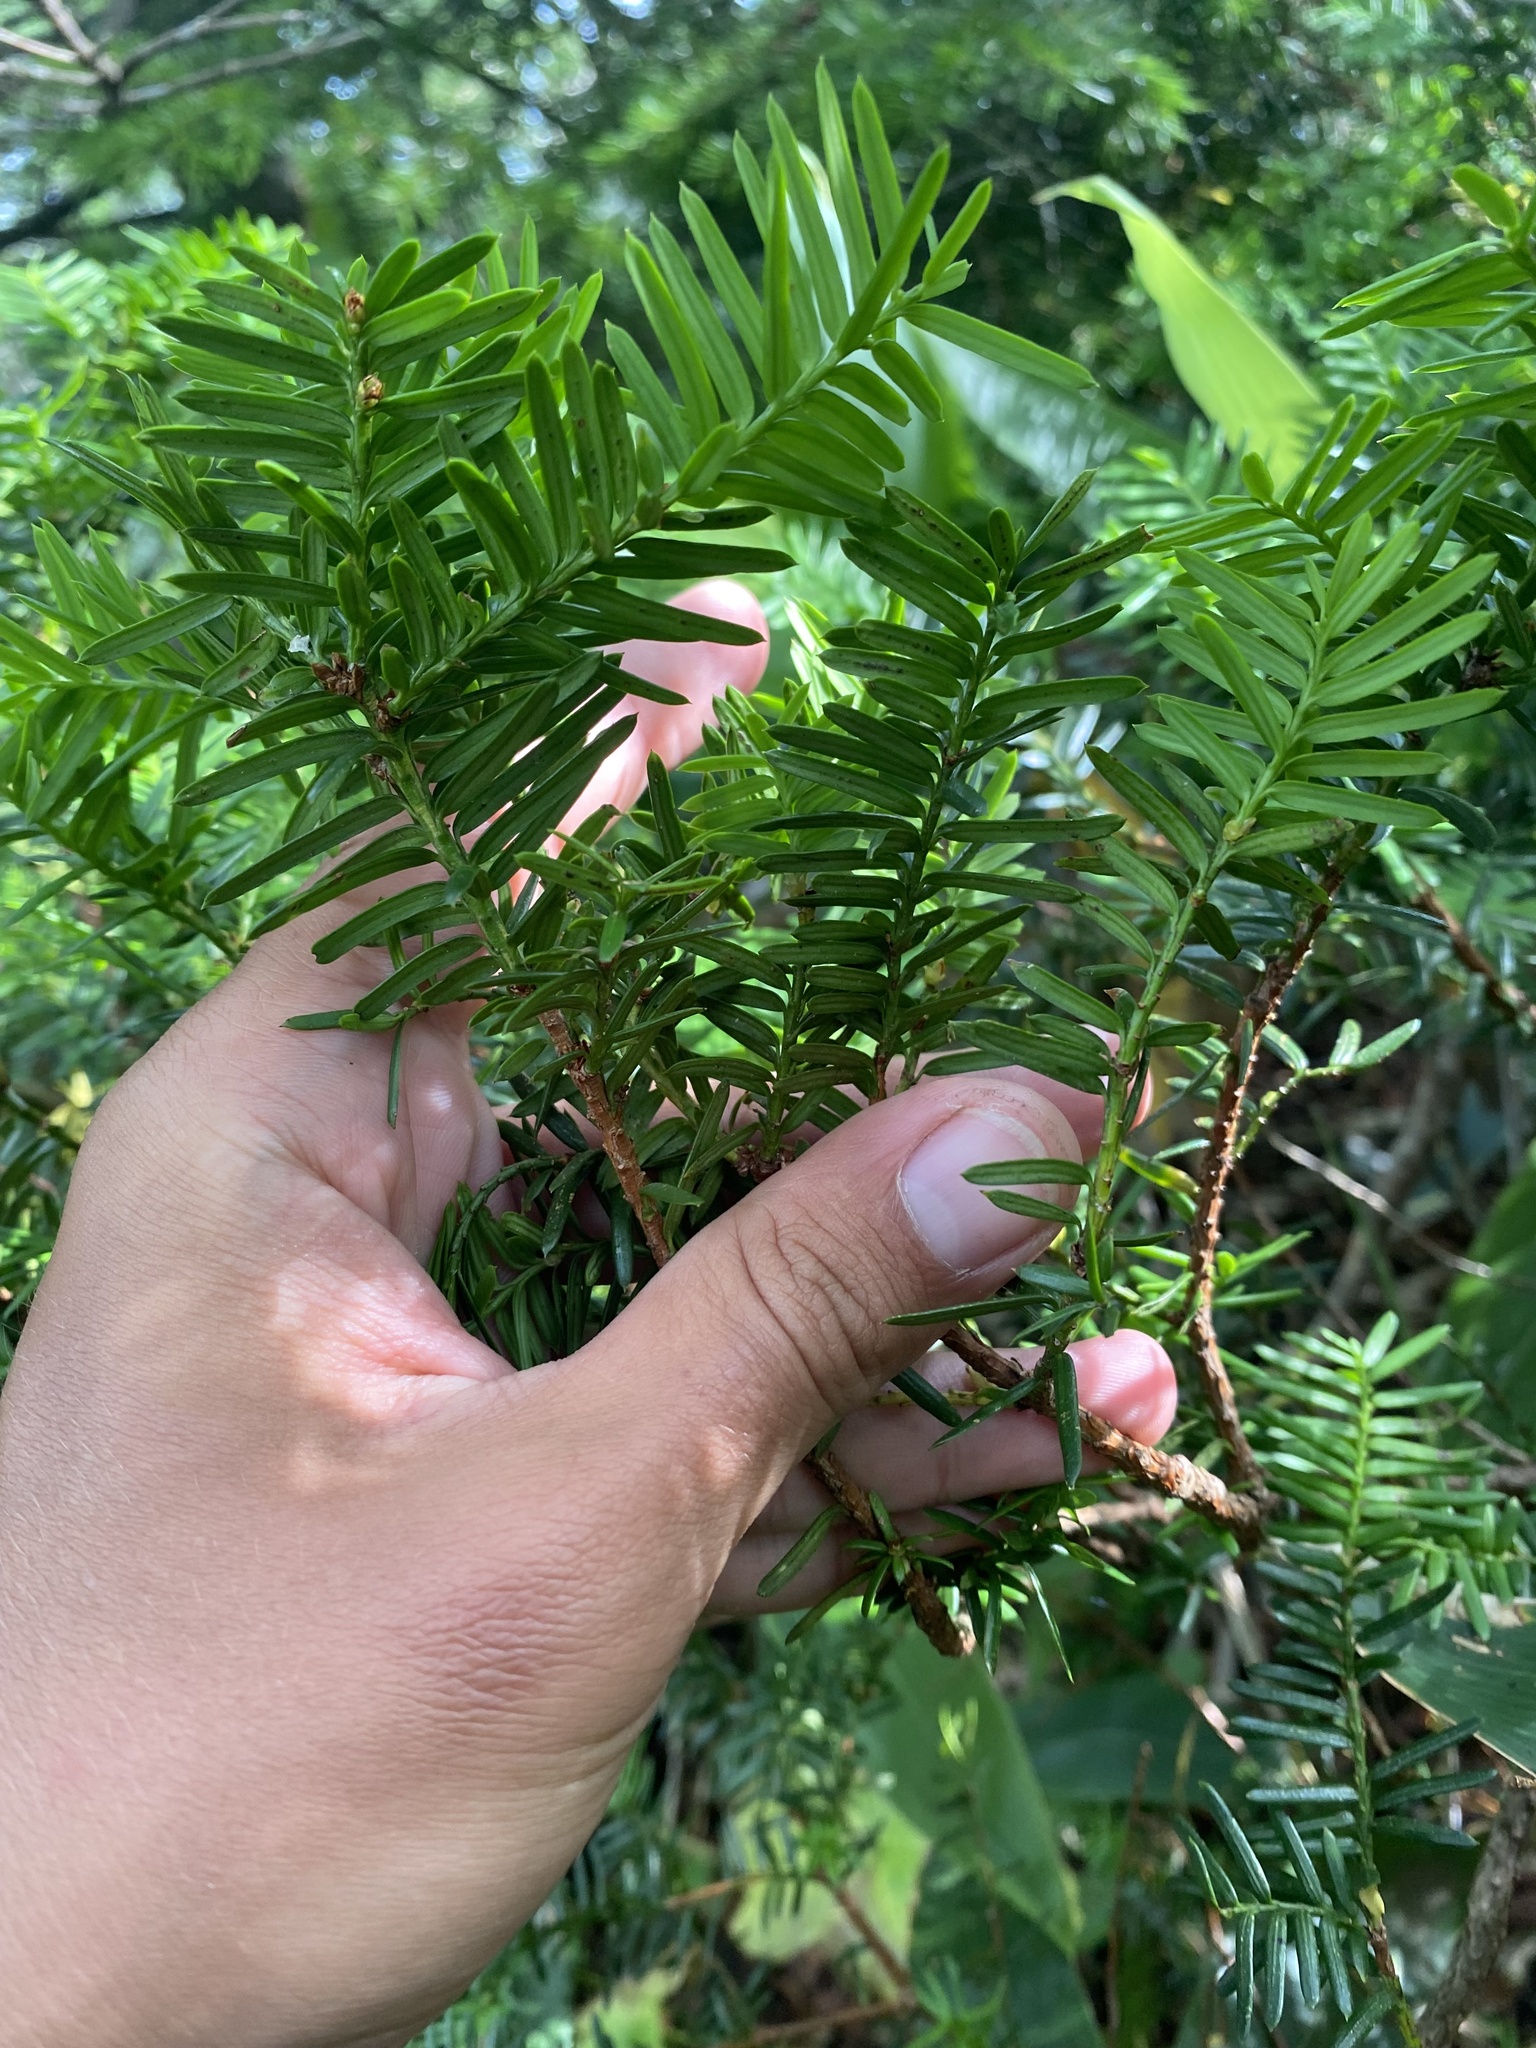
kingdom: Plantae
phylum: Tracheophyta
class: Pinopsida
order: Pinales
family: Taxaceae
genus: Taxus
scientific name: Taxus cuspidata
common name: Japanese yew
